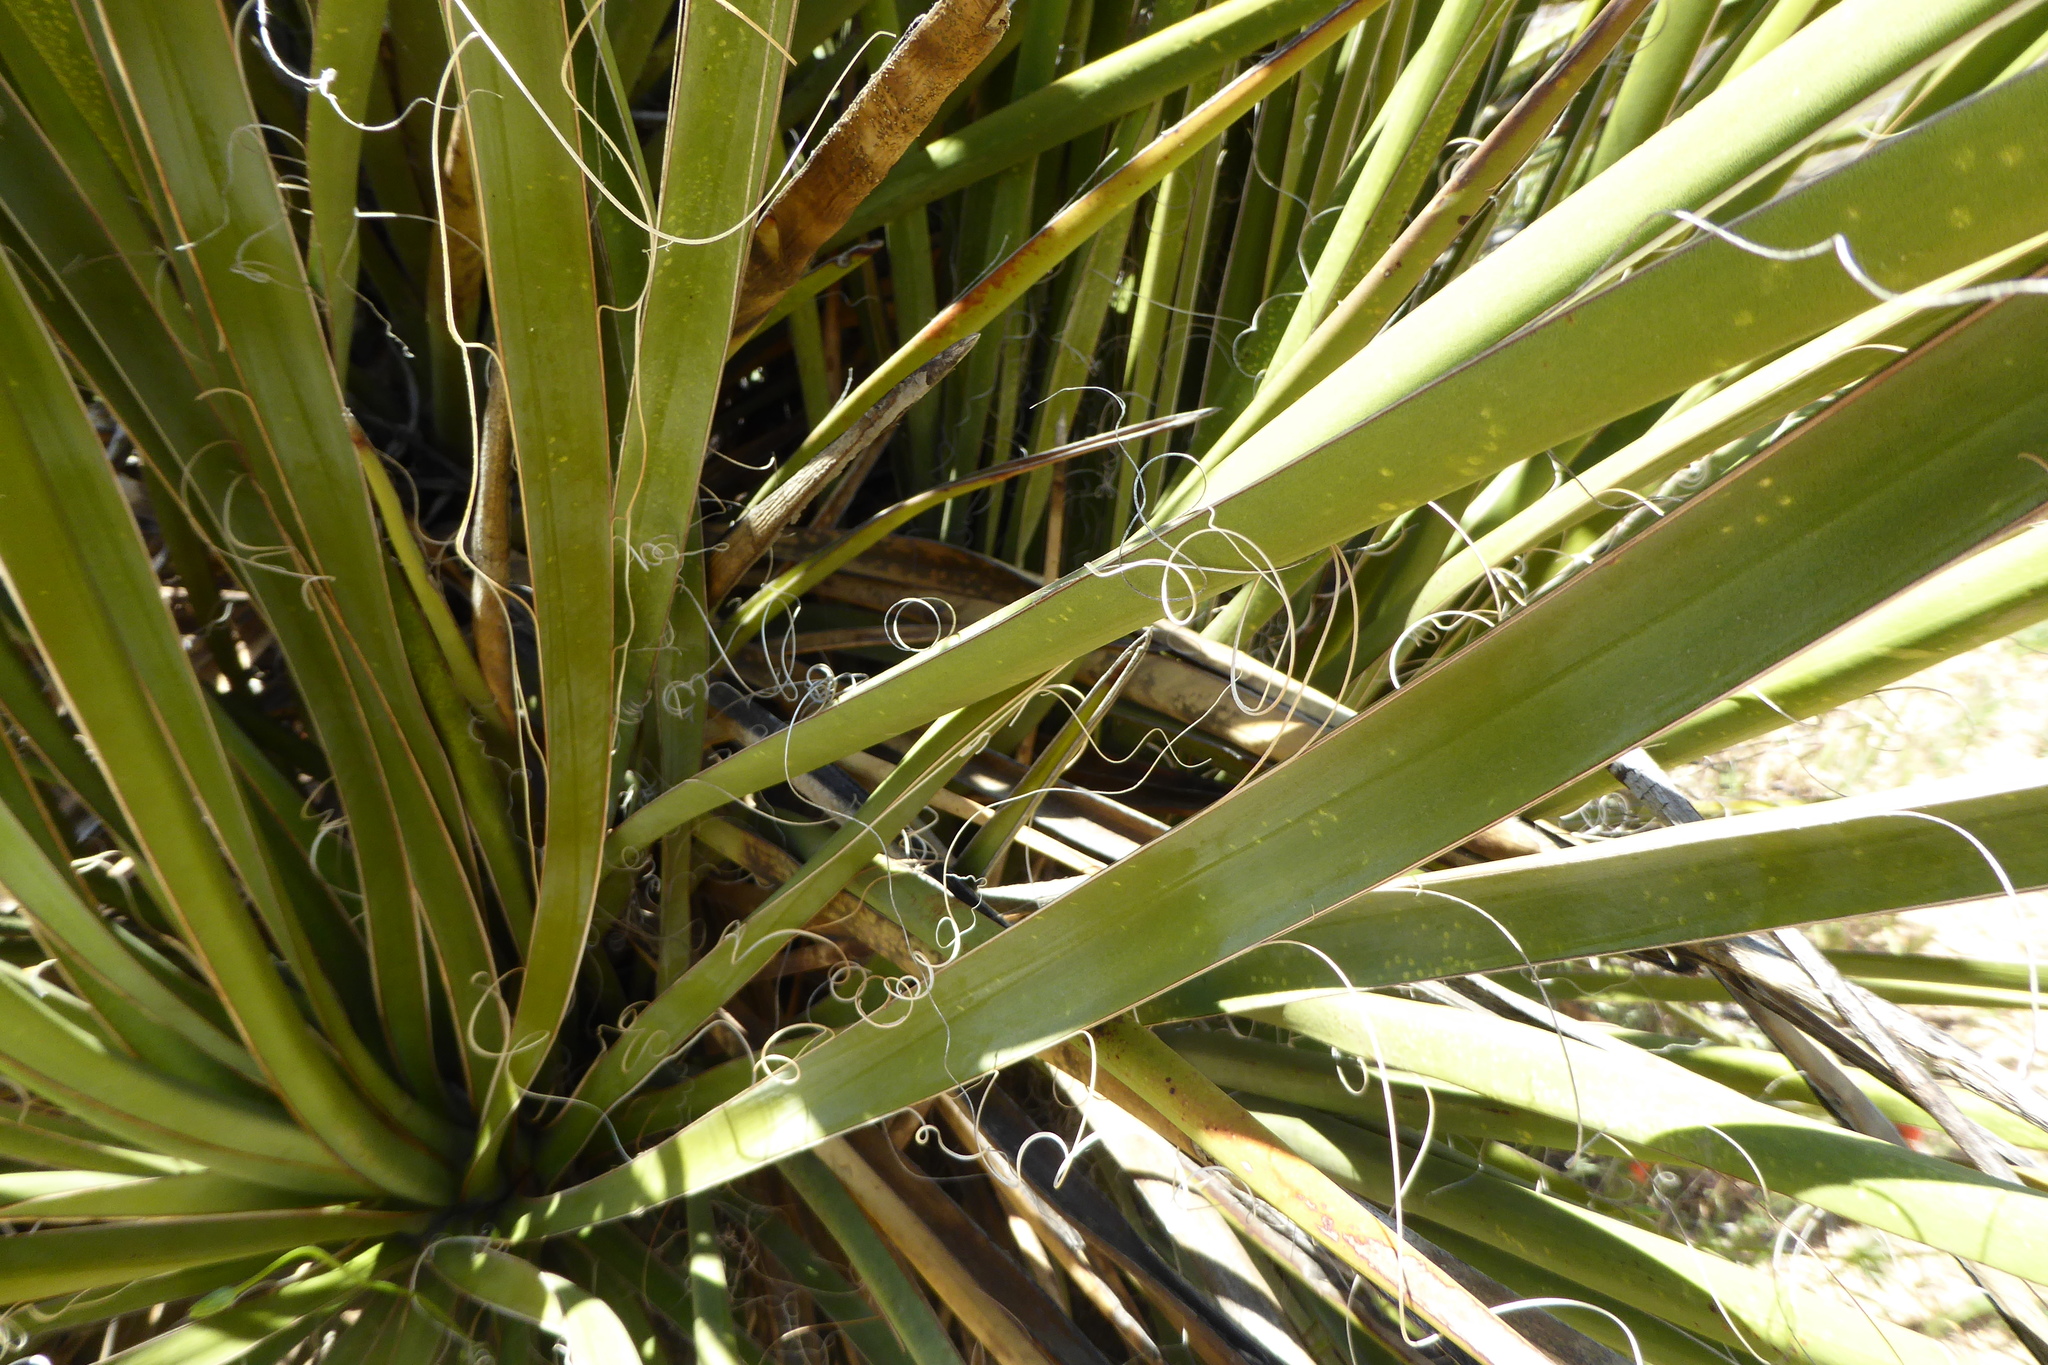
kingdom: Plantae
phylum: Tracheophyta
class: Liliopsida
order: Asparagales
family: Asparagaceae
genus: Yucca
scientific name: Yucca schidigera
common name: Mojave yucca
